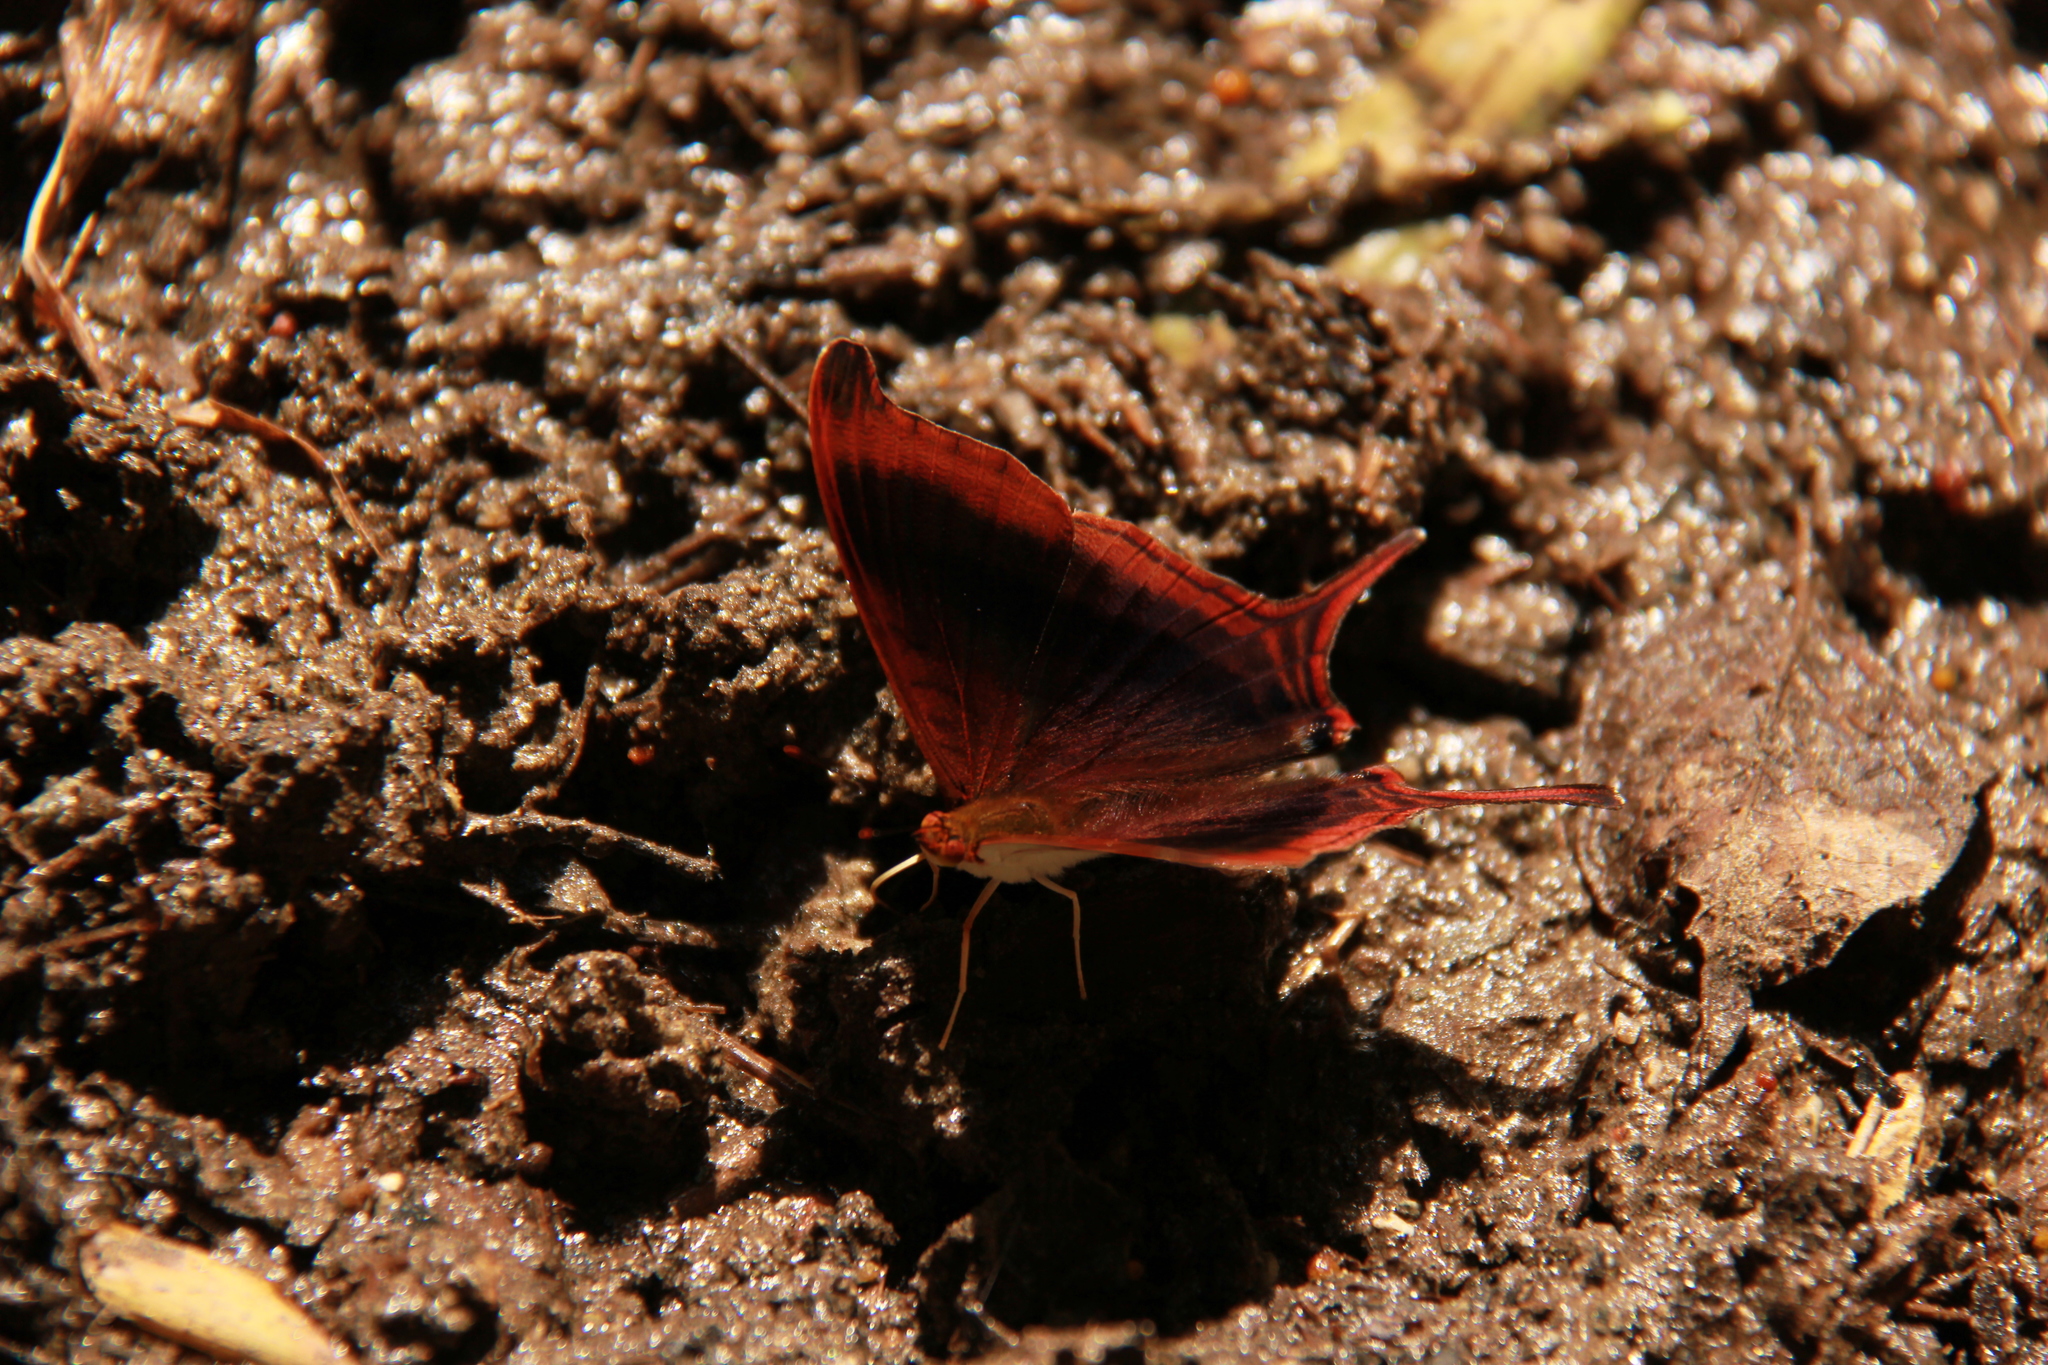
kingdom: Animalia
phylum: Arthropoda
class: Insecta
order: Lepidoptera
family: Nymphalidae
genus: Marpesia
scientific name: Marpesia zerynthia
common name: Waiter daggerwing
